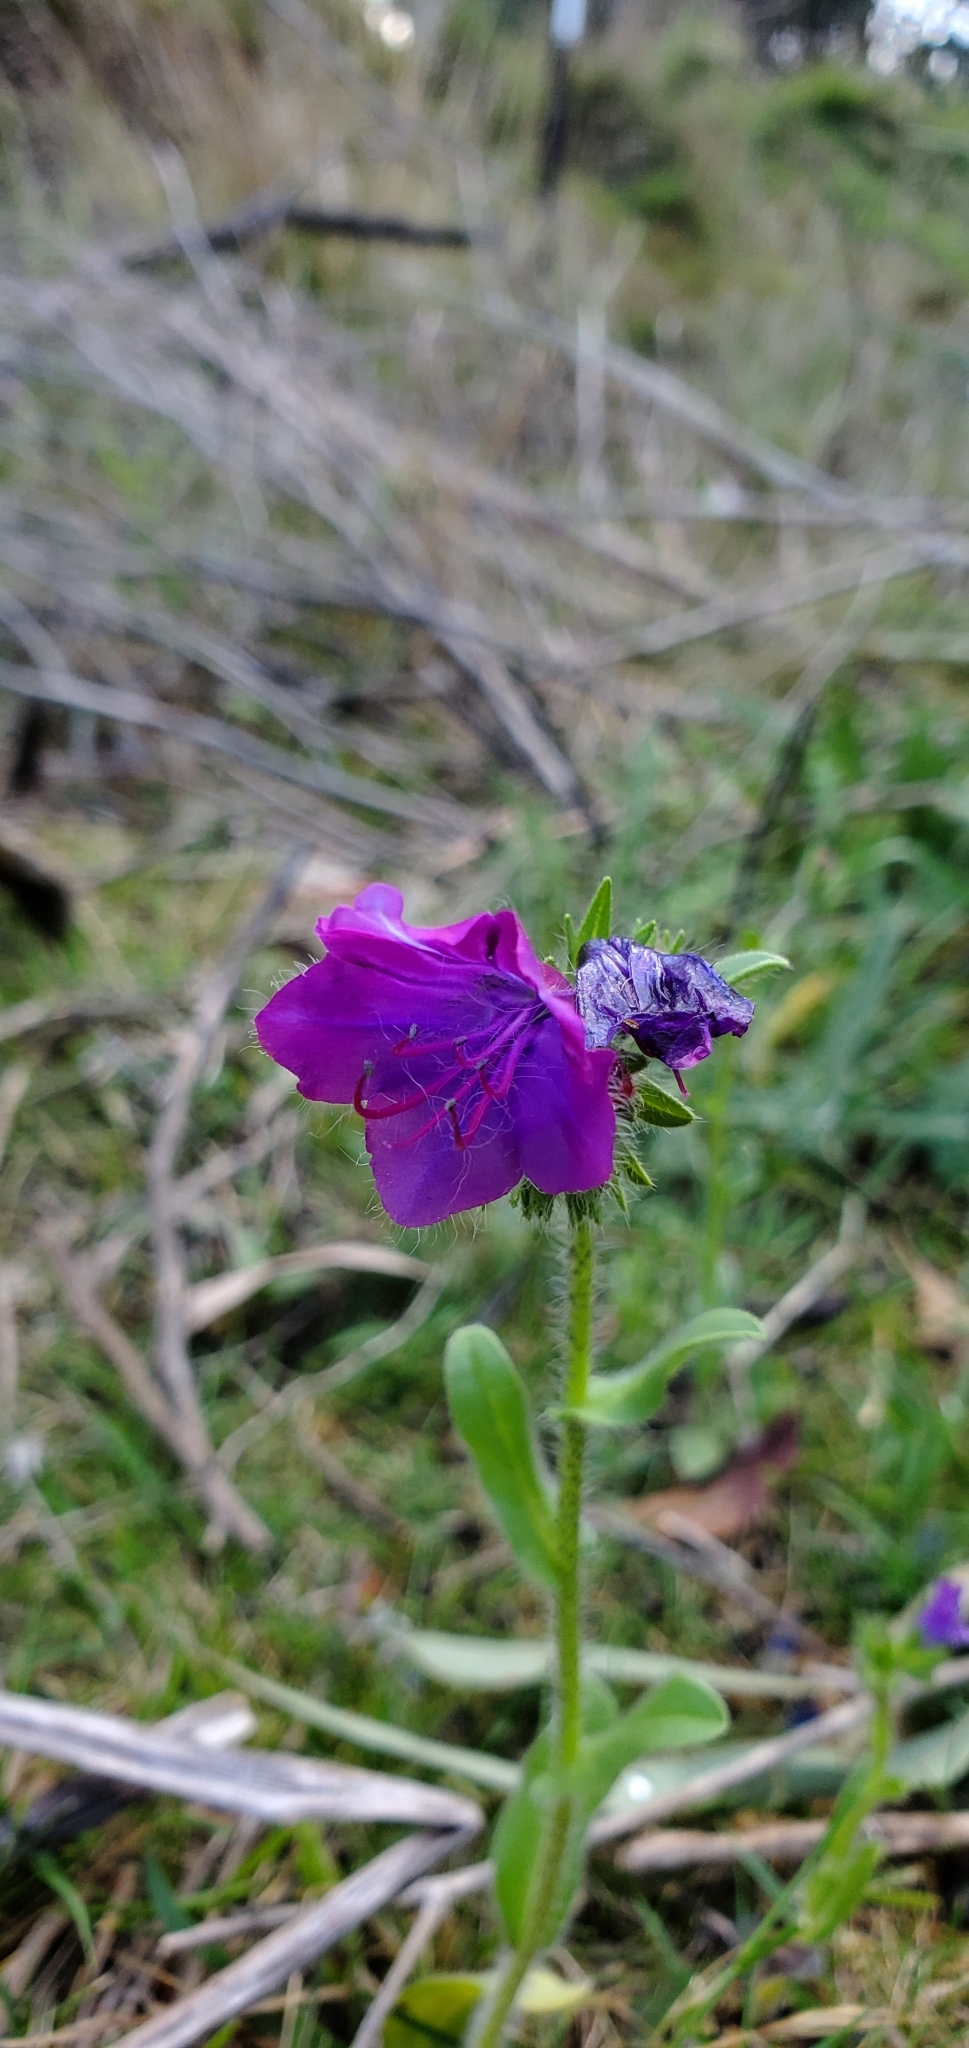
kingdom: Plantae
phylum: Tracheophyta
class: Magnoliopsida
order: Boraginales
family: Boraginaceae
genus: Echium
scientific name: Echium plantagineum
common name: Purple viper's-bugloss
